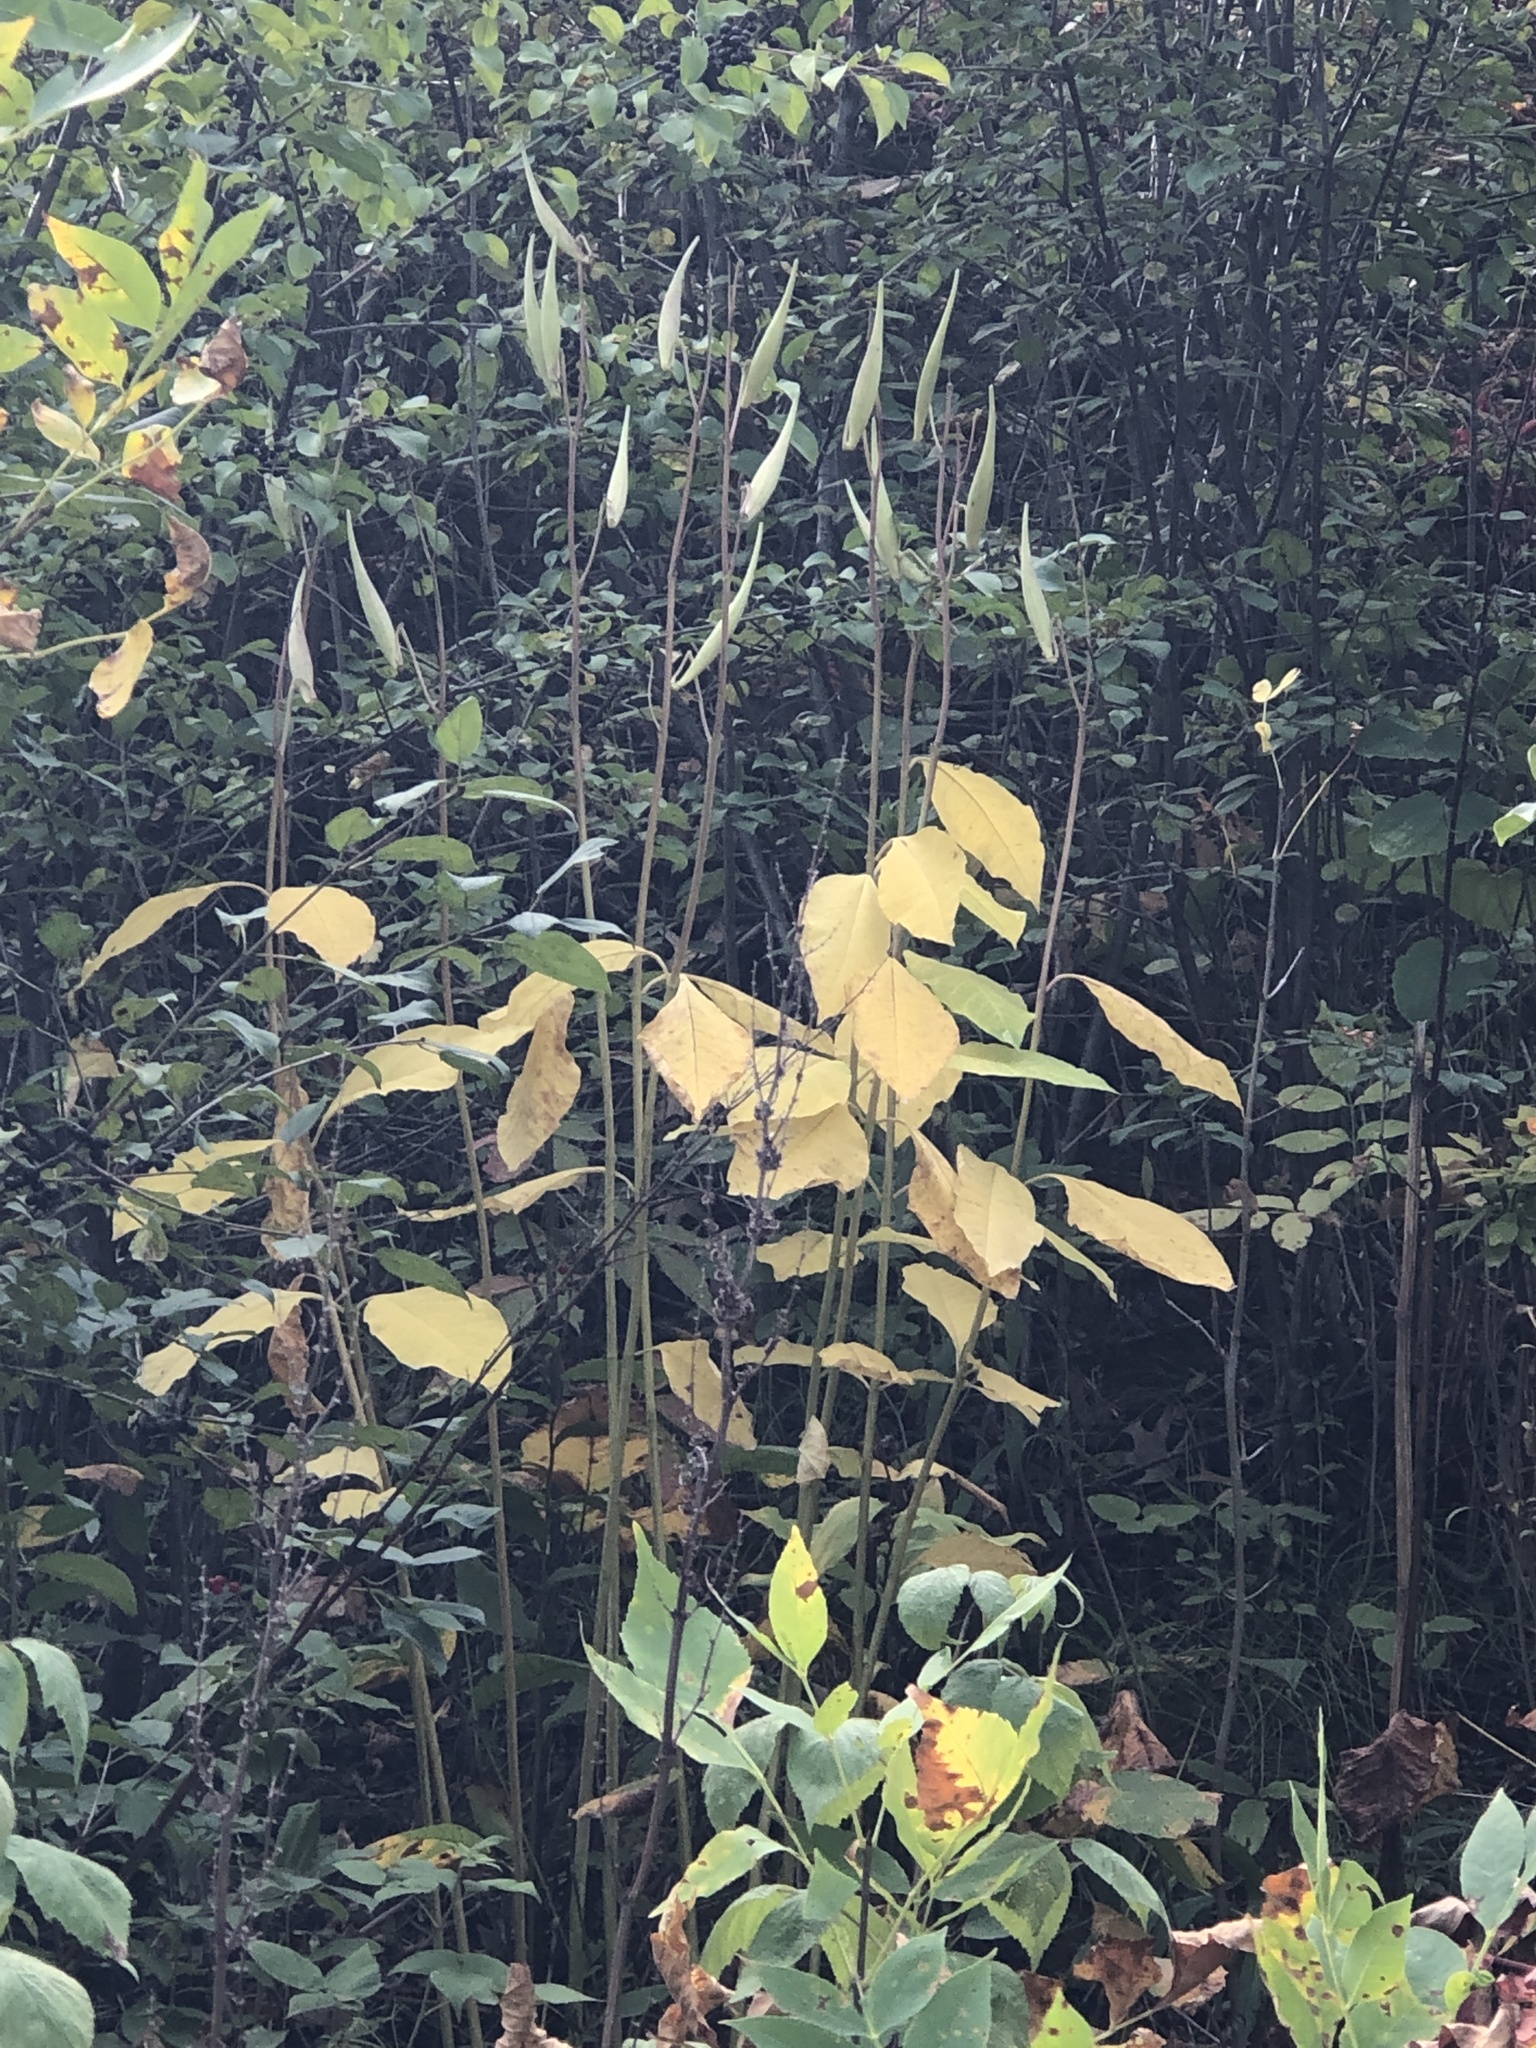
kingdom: Plantae
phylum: Tracheophyta
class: Magnoliopsida
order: Gentianales
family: Apocynaceae
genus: Asclepias
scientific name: Asclepias exaltata
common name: Poke milkweed
